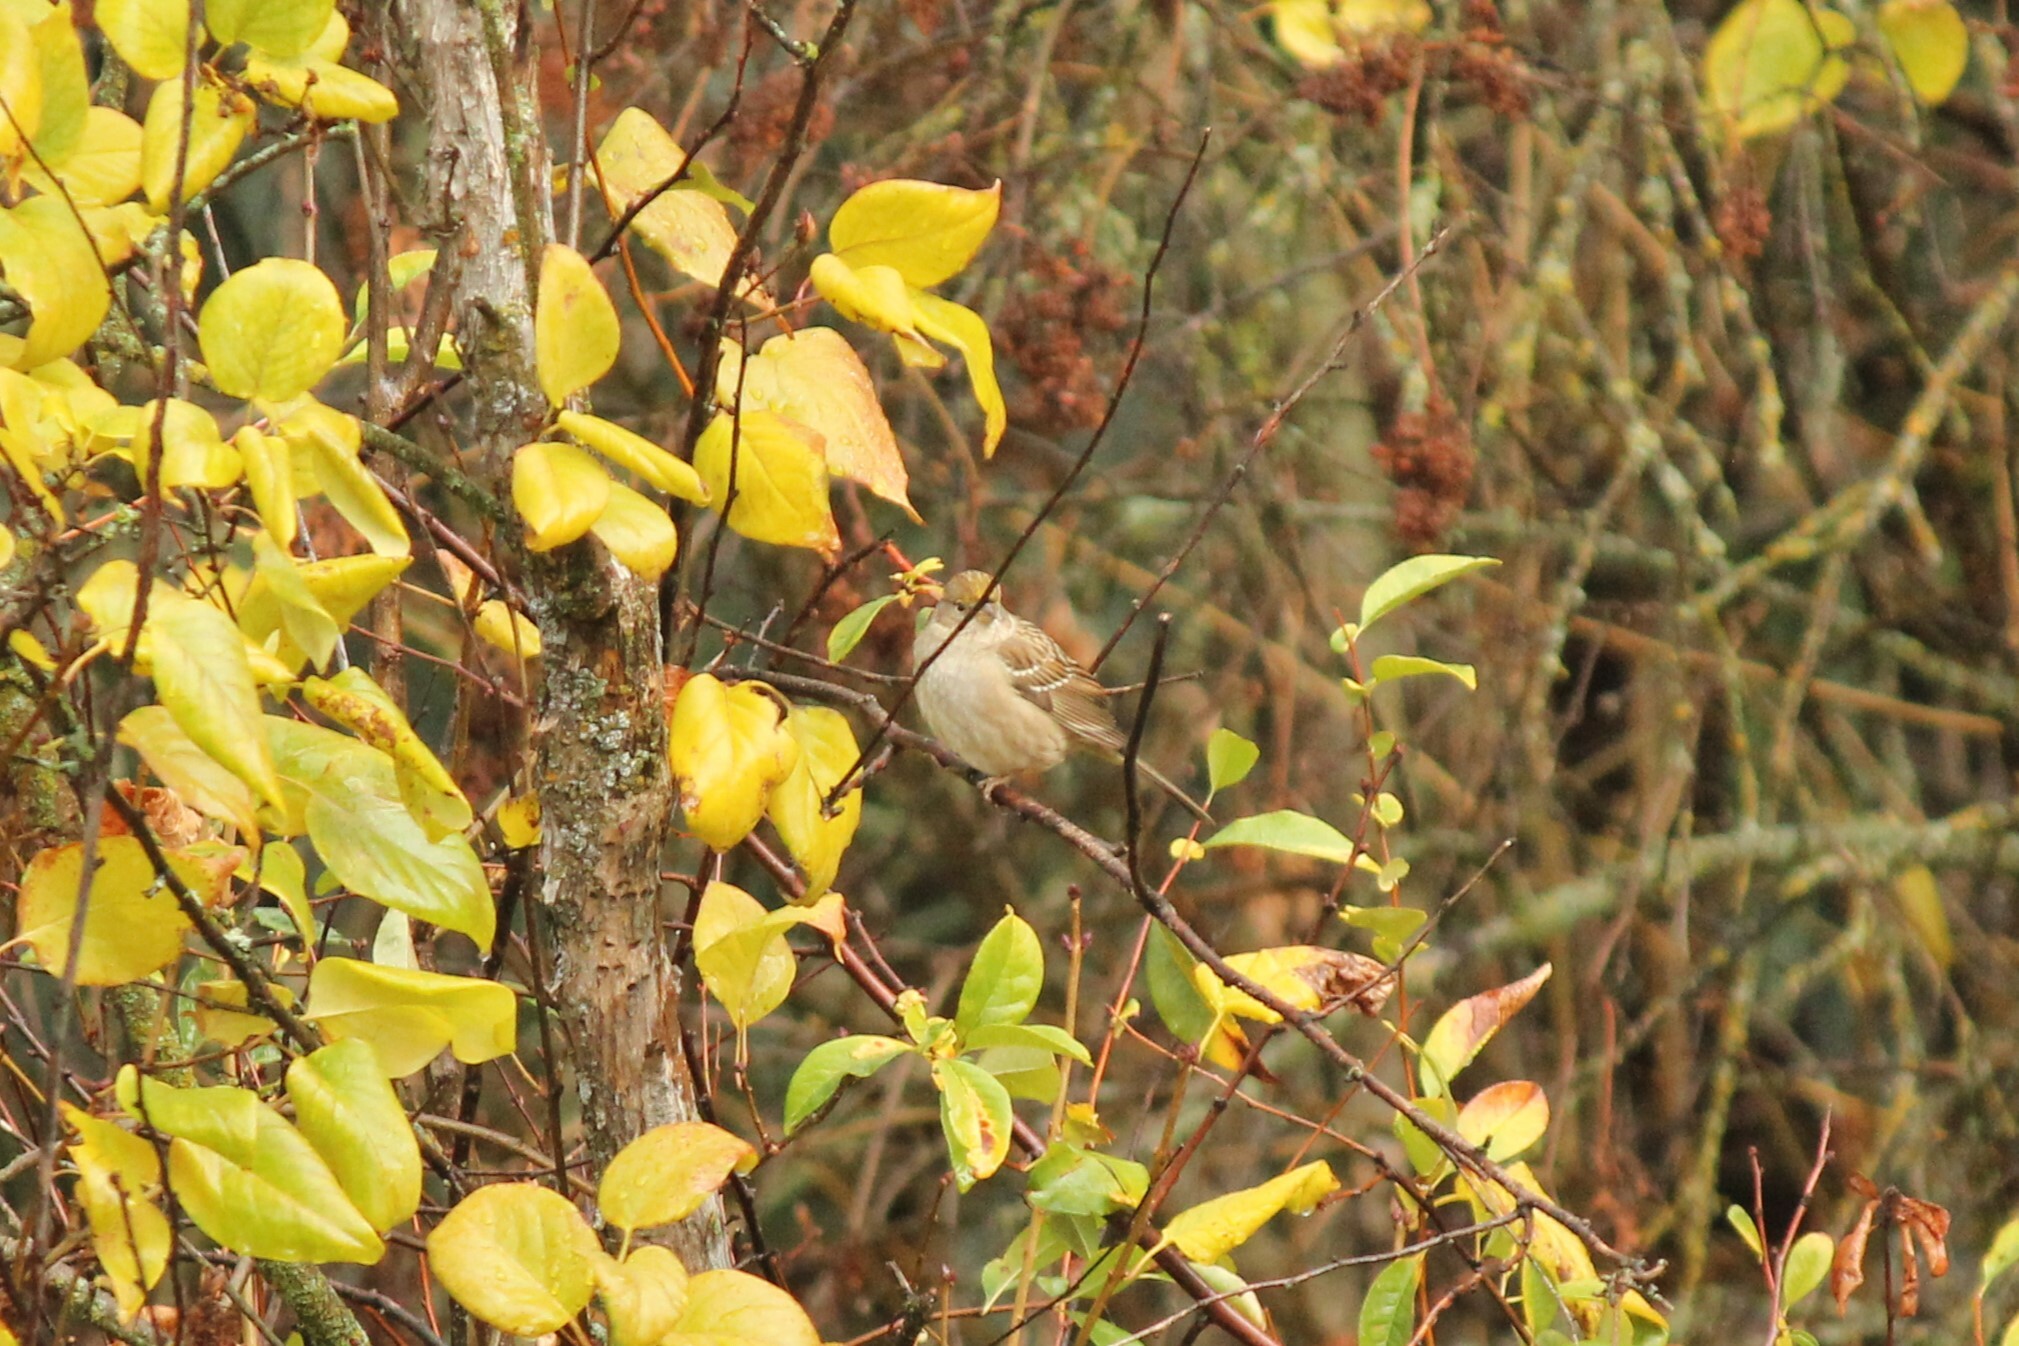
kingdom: Animalia
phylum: Chordata
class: Aves
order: Passeriformes
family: Passerellidae
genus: Zonotrichia
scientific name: Zonotrichia atricapilla
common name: Golden-crowned sparrow
